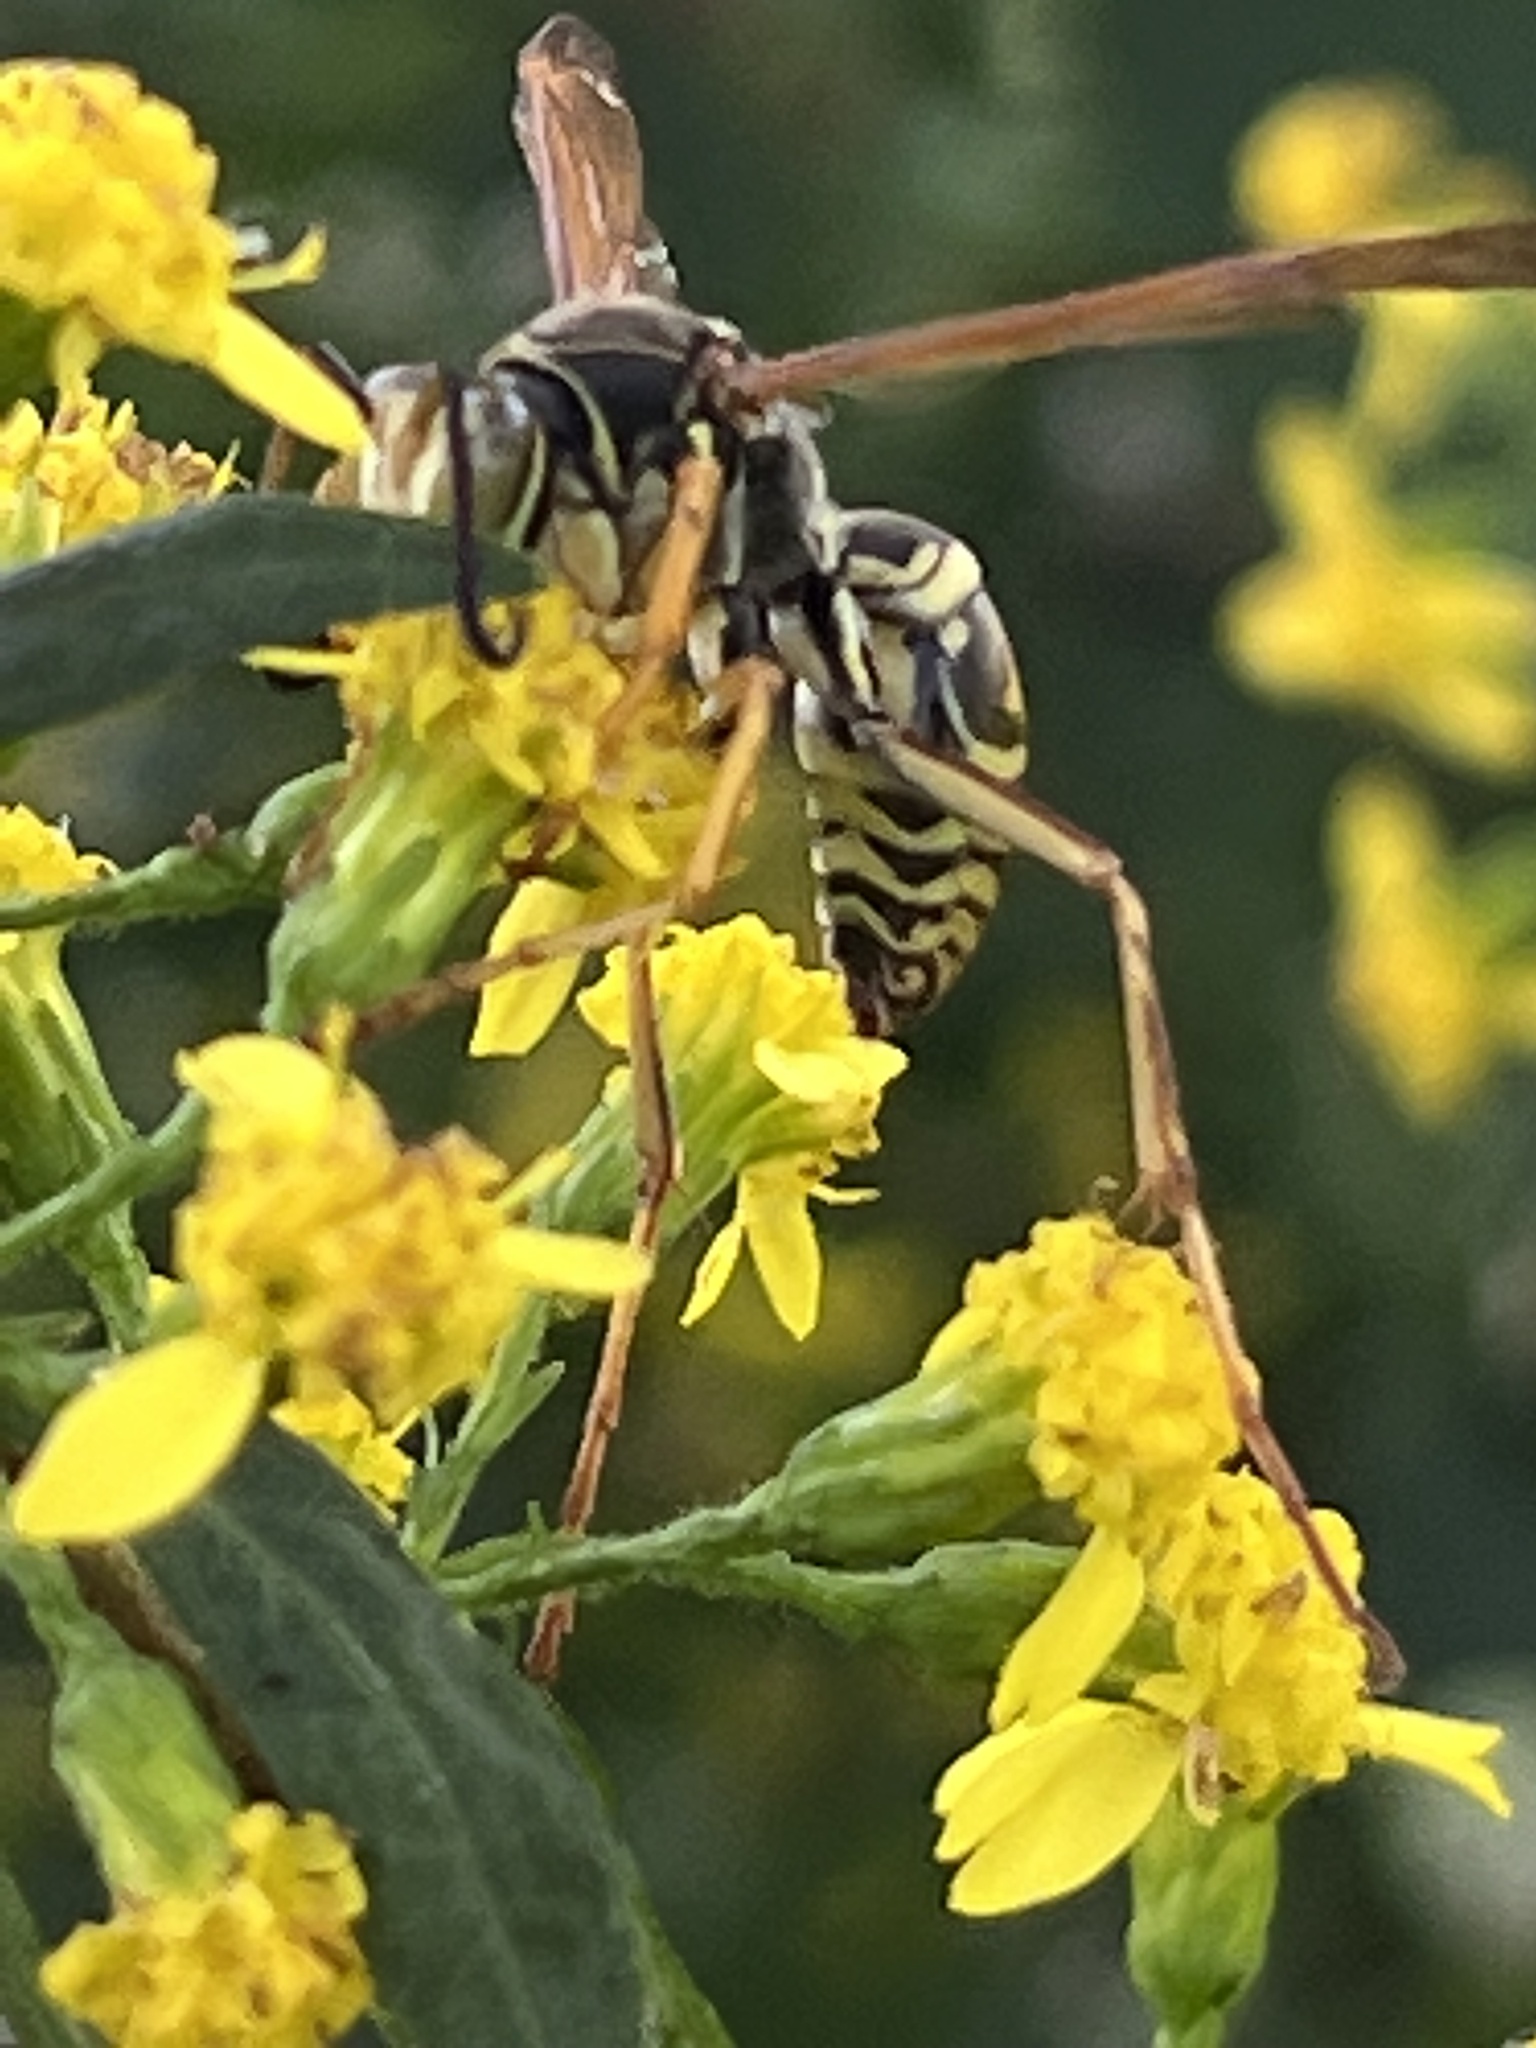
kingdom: Animalia
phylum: Arthropoda
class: Insecta
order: Hymenoptera
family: Eumenidae
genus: Polistes
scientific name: Polistes fuscatus
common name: Dark paper wasp
